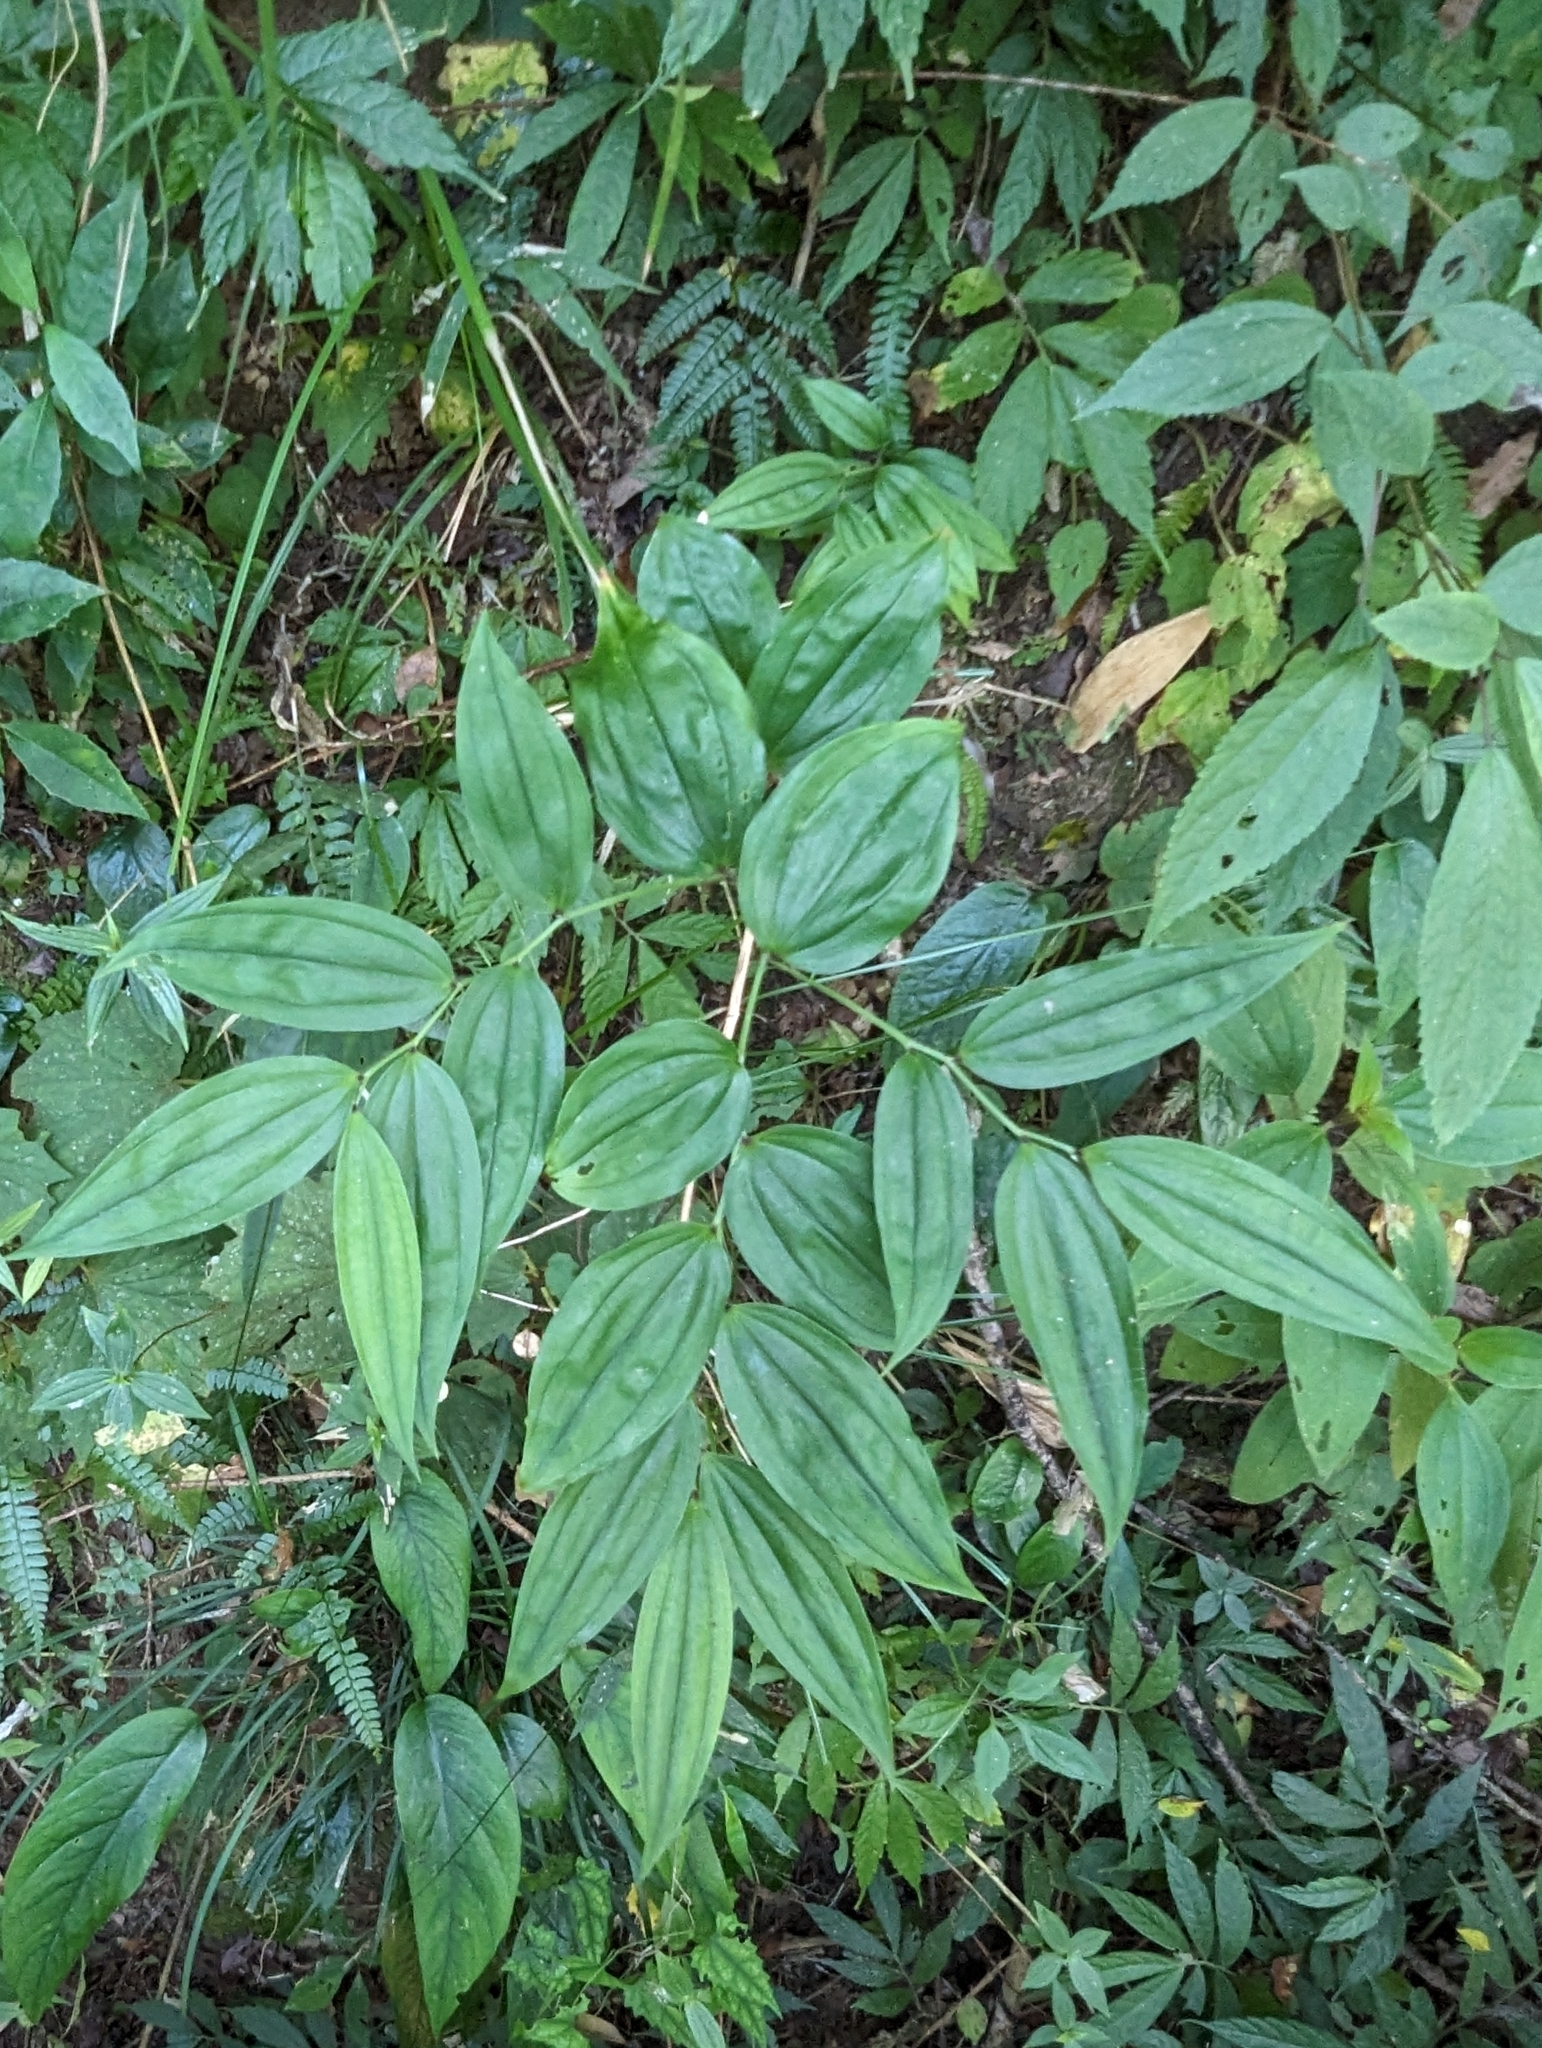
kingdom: Plantae
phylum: Tracheophyta
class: Liliopsida
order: Liliales
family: Colchicaceae
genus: Disporum
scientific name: Disporum kawakamii
